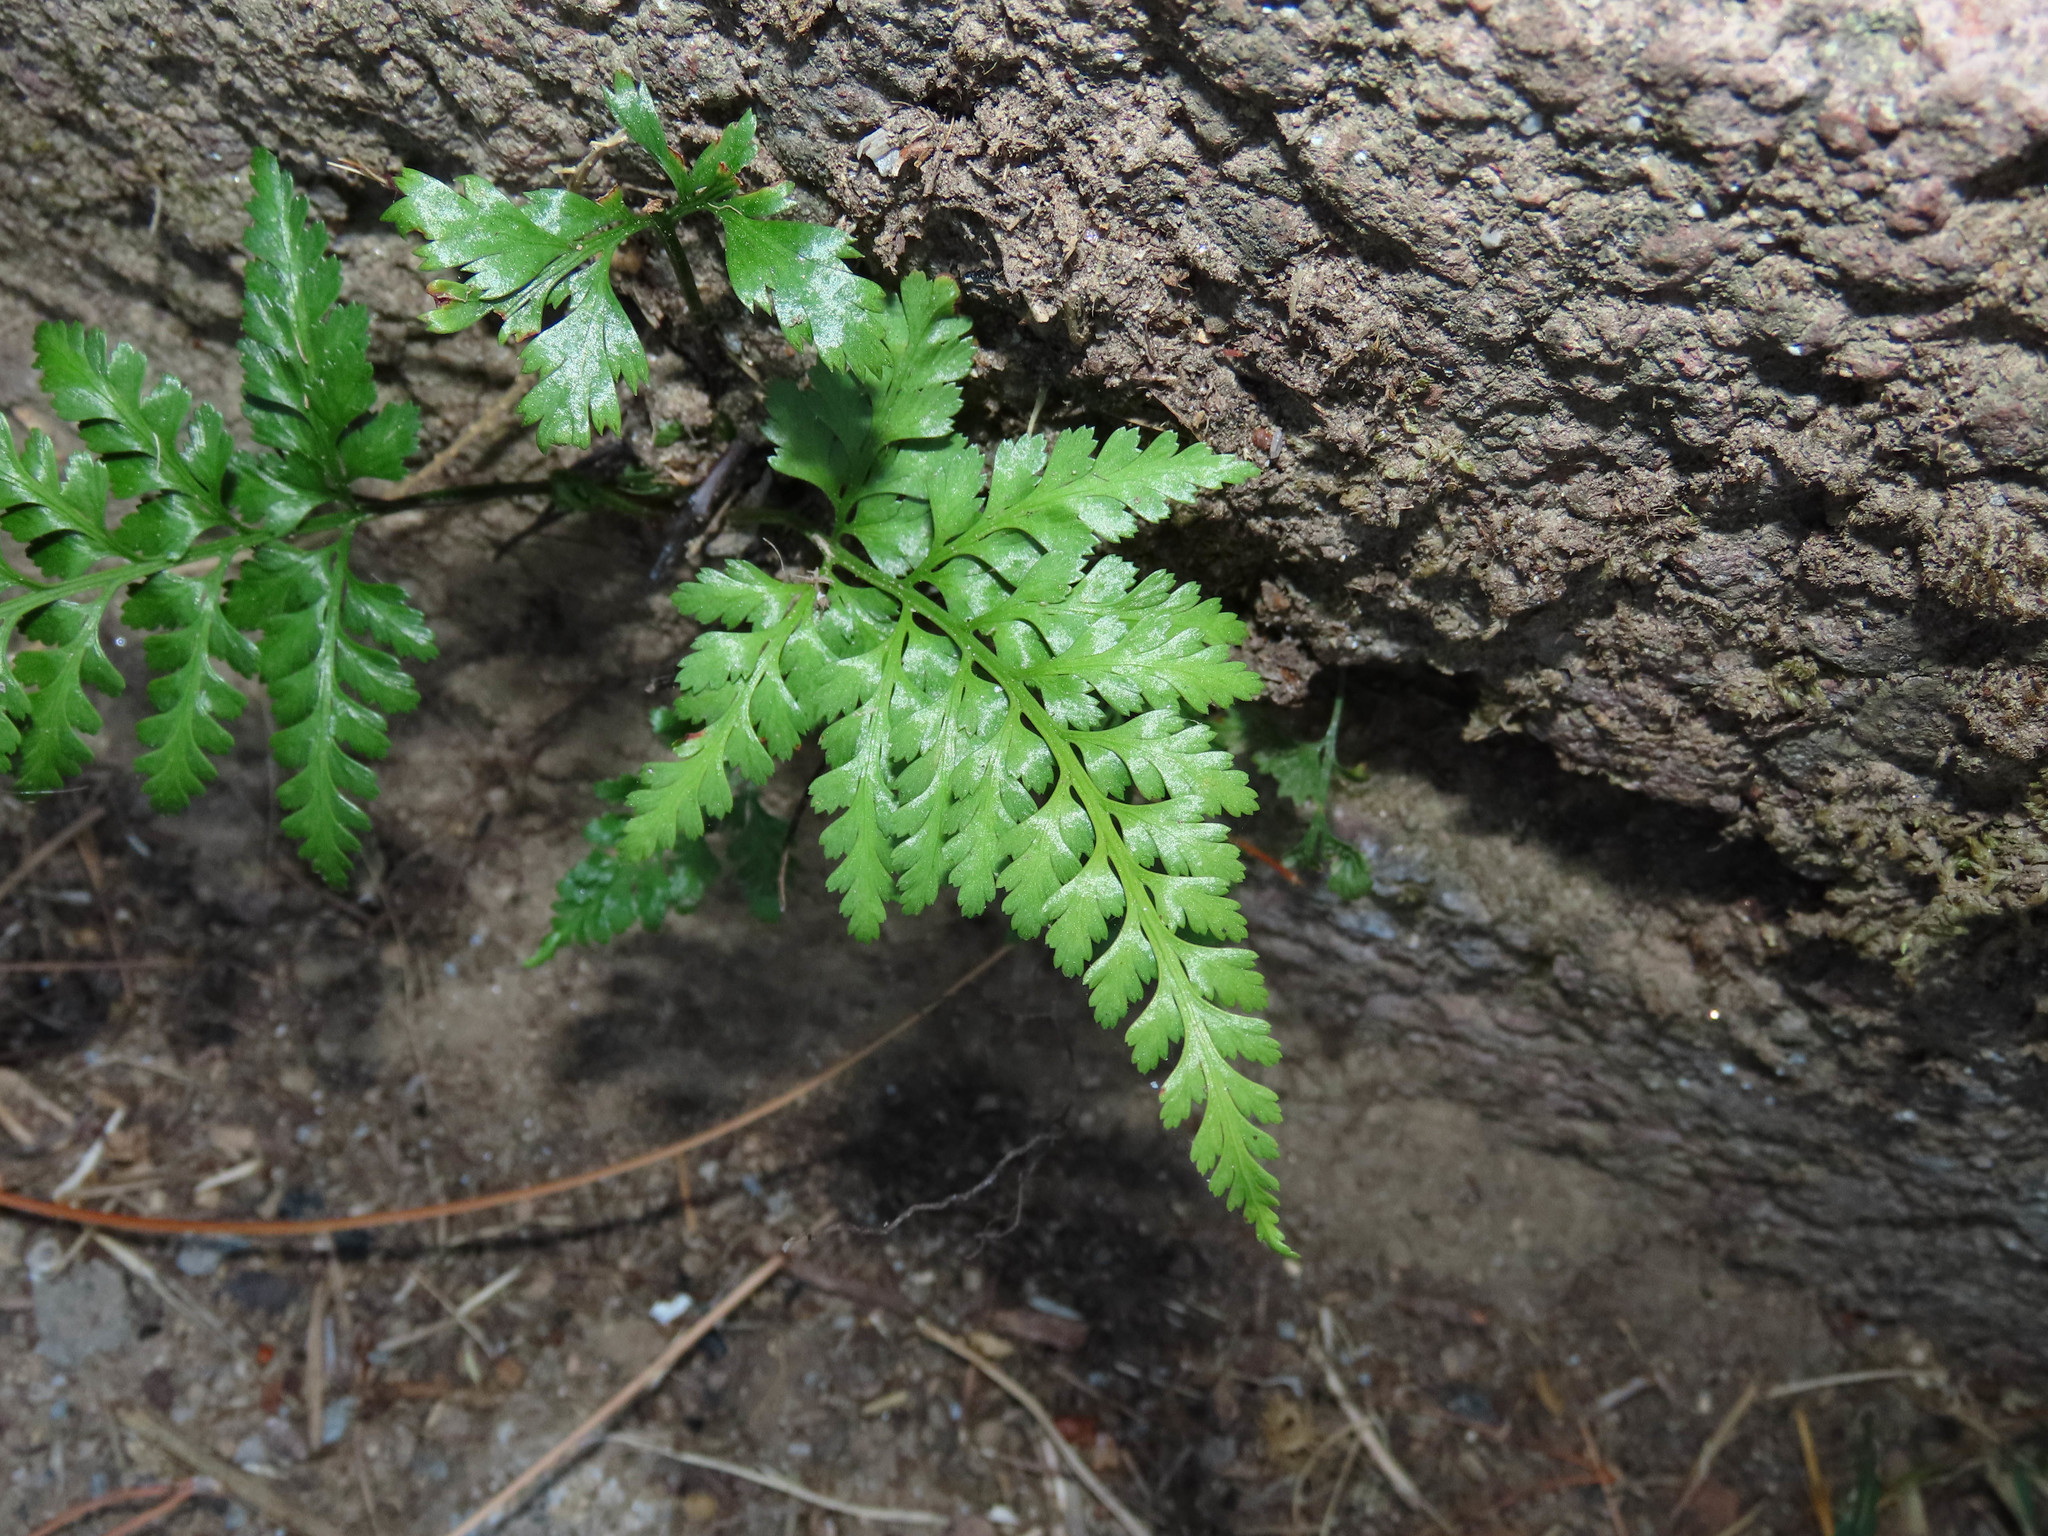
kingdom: Plantae
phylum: Tracheophyta
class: Polypodiopsida
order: Polypodiales
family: Aspleniaceae
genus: Asplenium
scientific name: Asplenium onopteris
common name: Irish spleenwort
